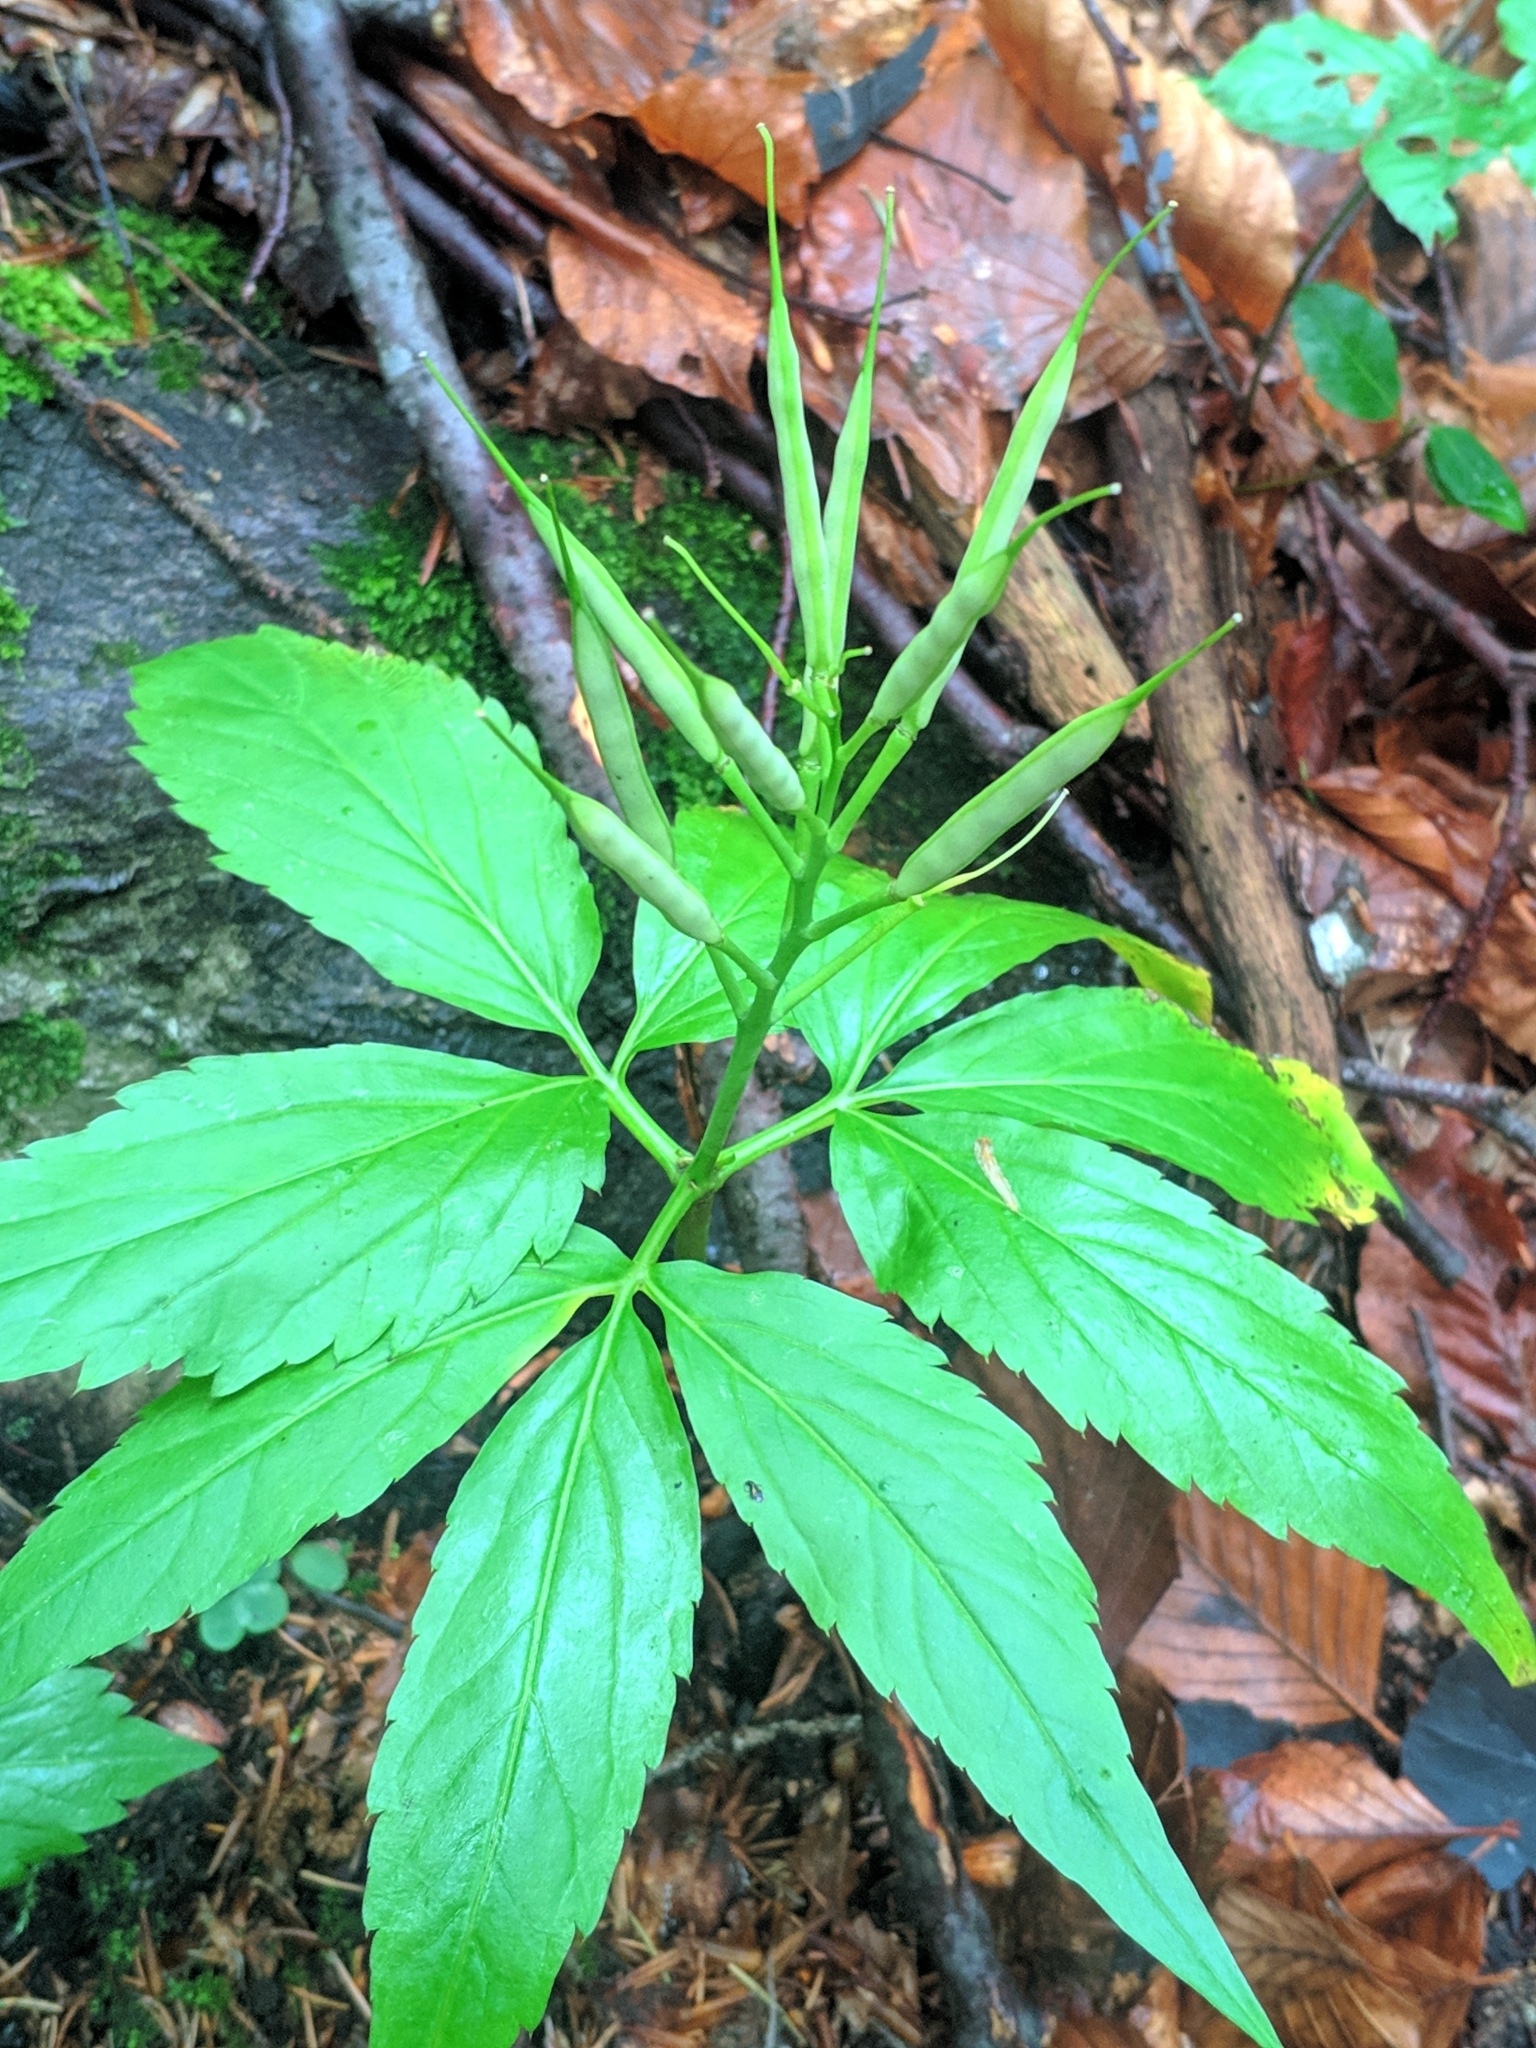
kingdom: Plantae
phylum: Tracheophyta
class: Magnoliopsida
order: Brassicales
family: Brassicaceae
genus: Cardamine
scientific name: Cardamine enneaphyllos
